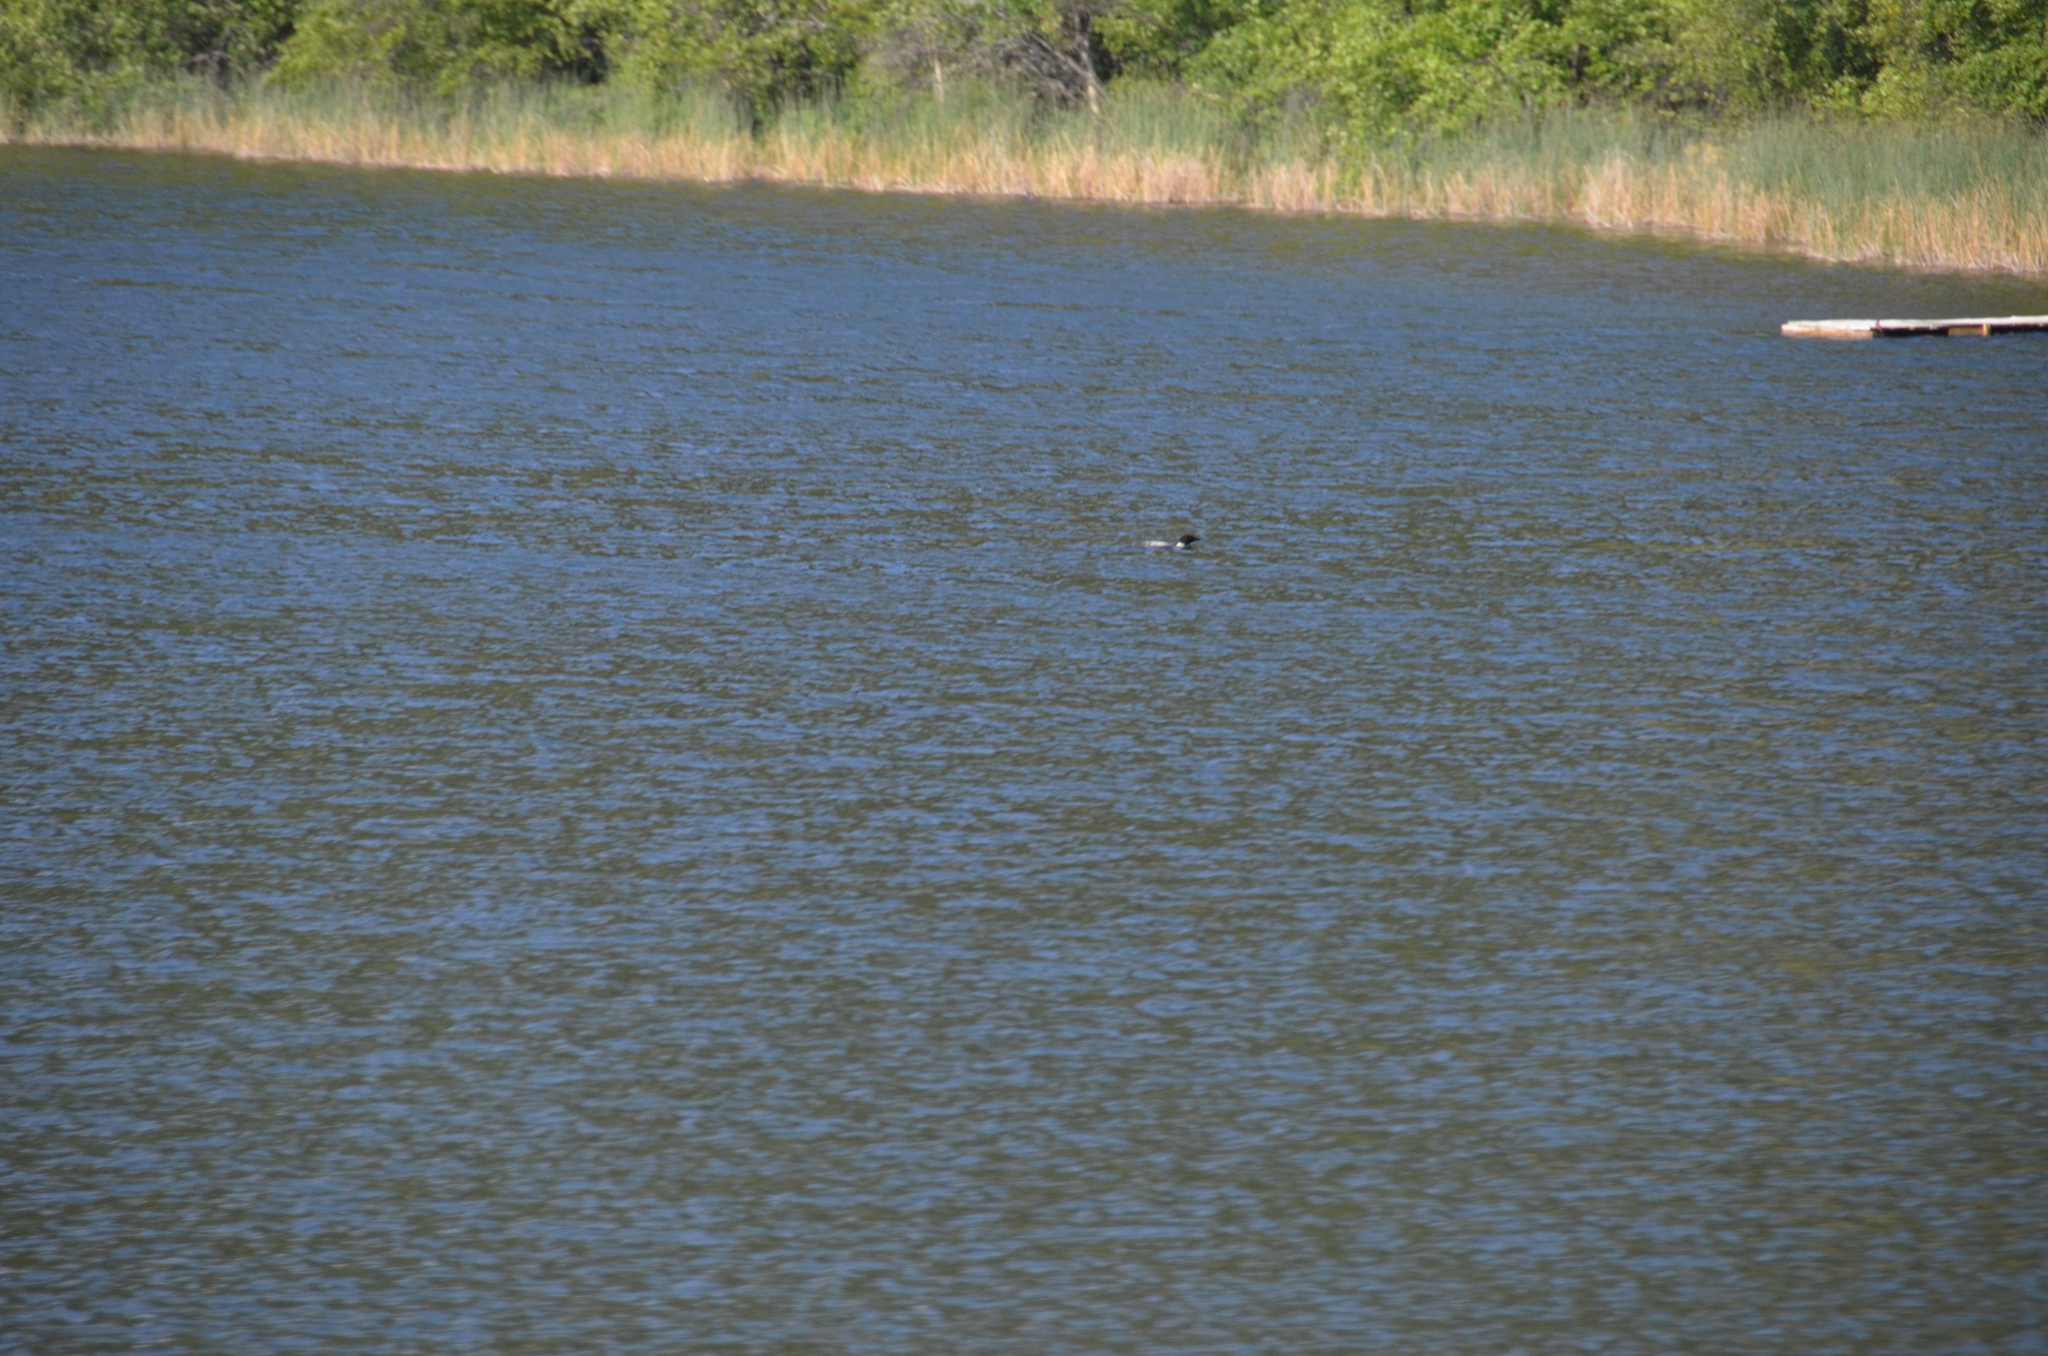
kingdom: Animalia
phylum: Chordata
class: Aves
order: Gaviiformes
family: Gaviidae
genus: Gavia
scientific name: Gavia immer
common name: Common loon
